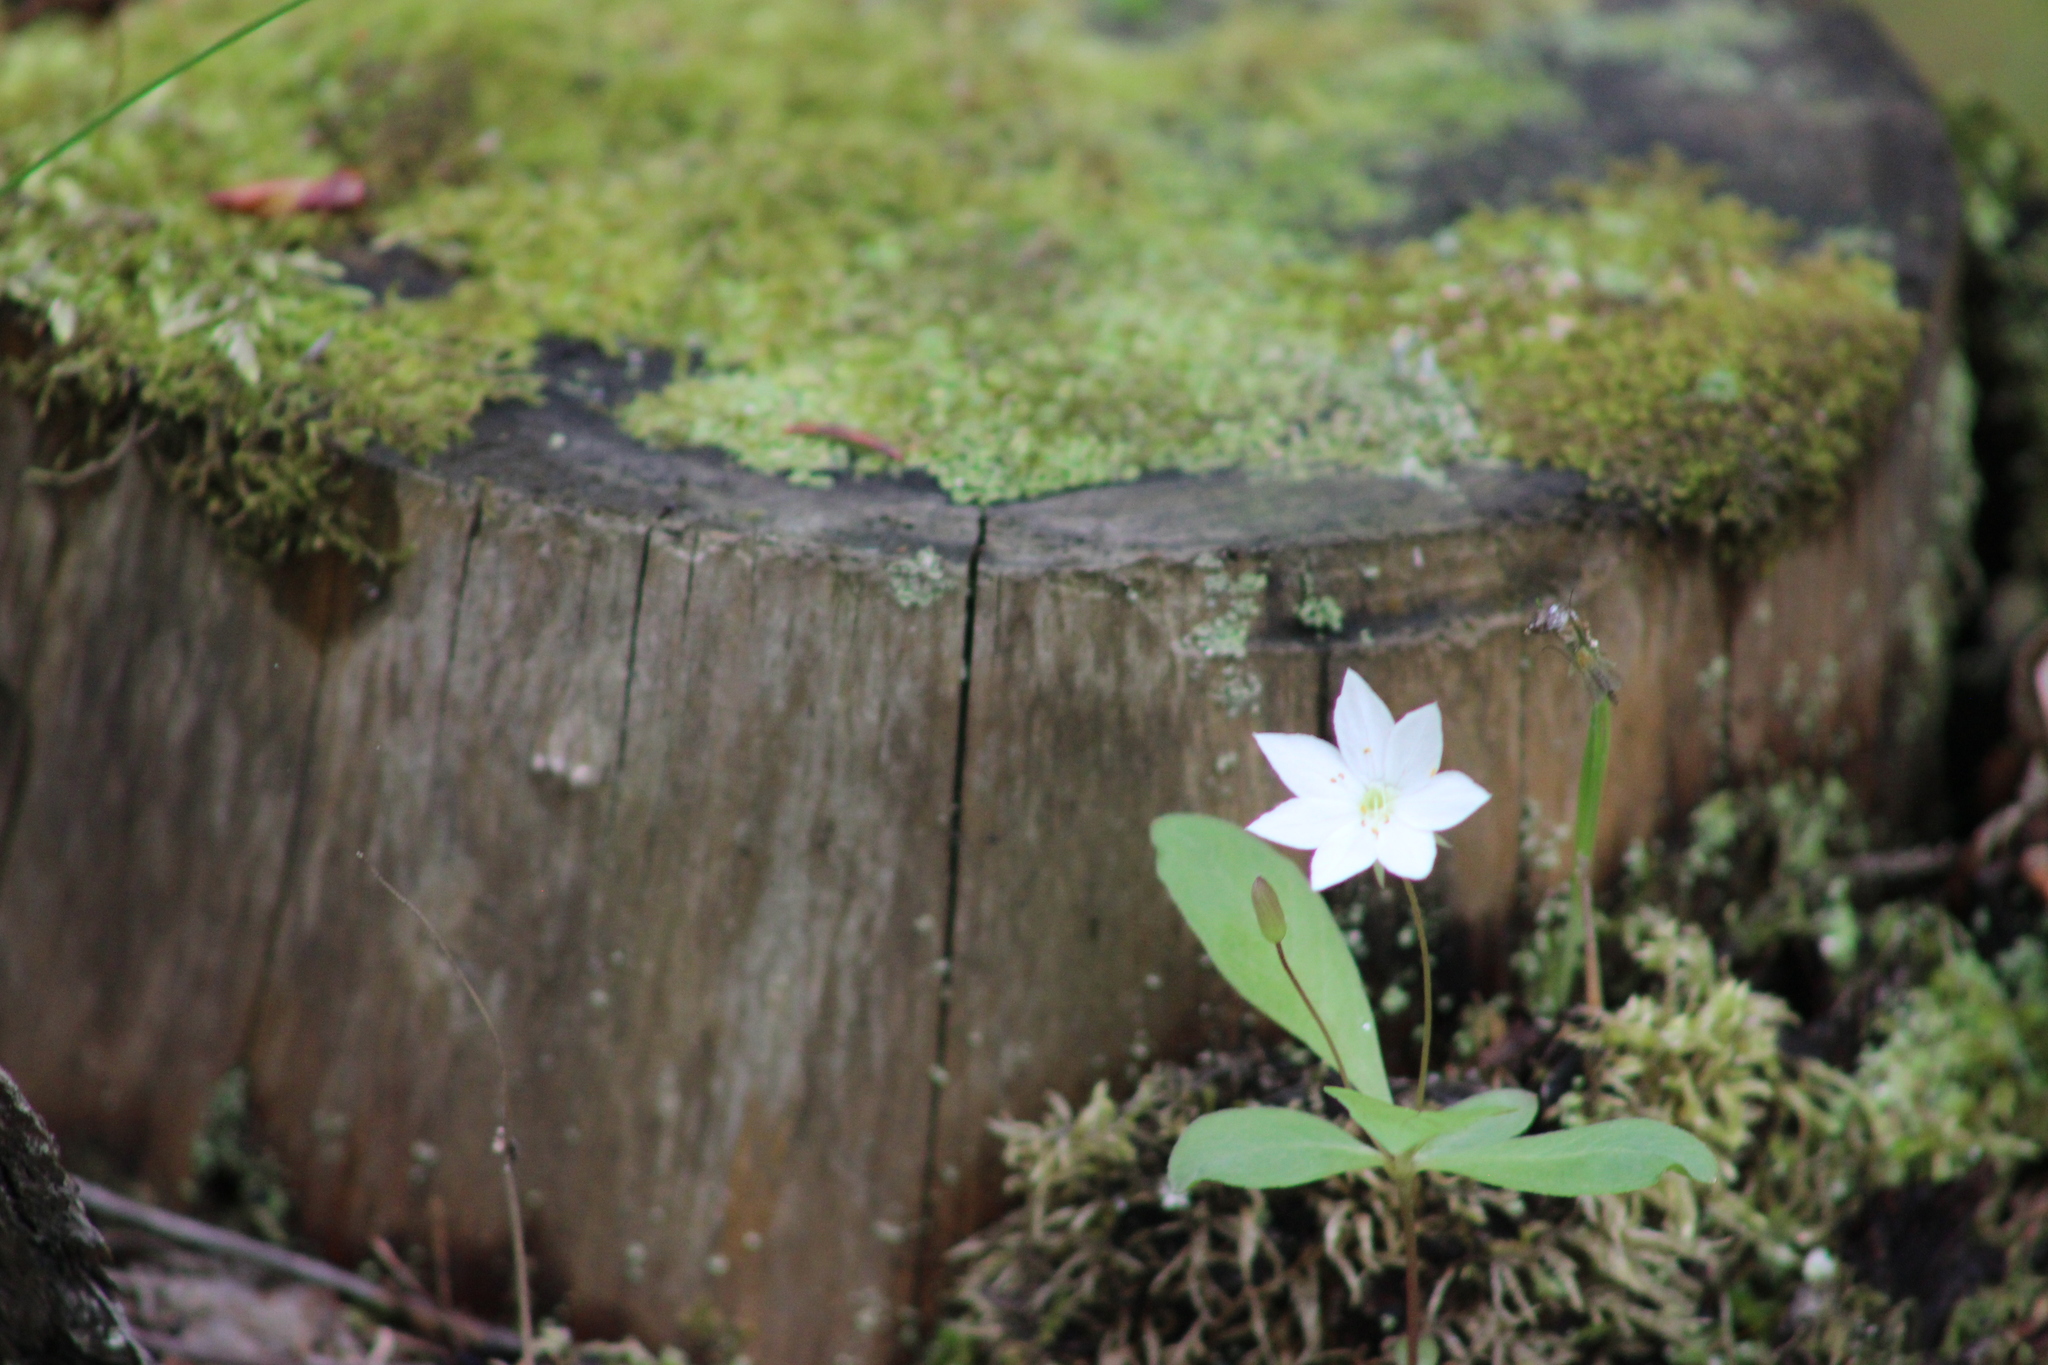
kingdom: Plantae
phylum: Tracheophyta
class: Magnoliopsida
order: Ericales
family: Primulaceae
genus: Lysimachia
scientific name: Lysimachia europaea
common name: Arctic starflower
